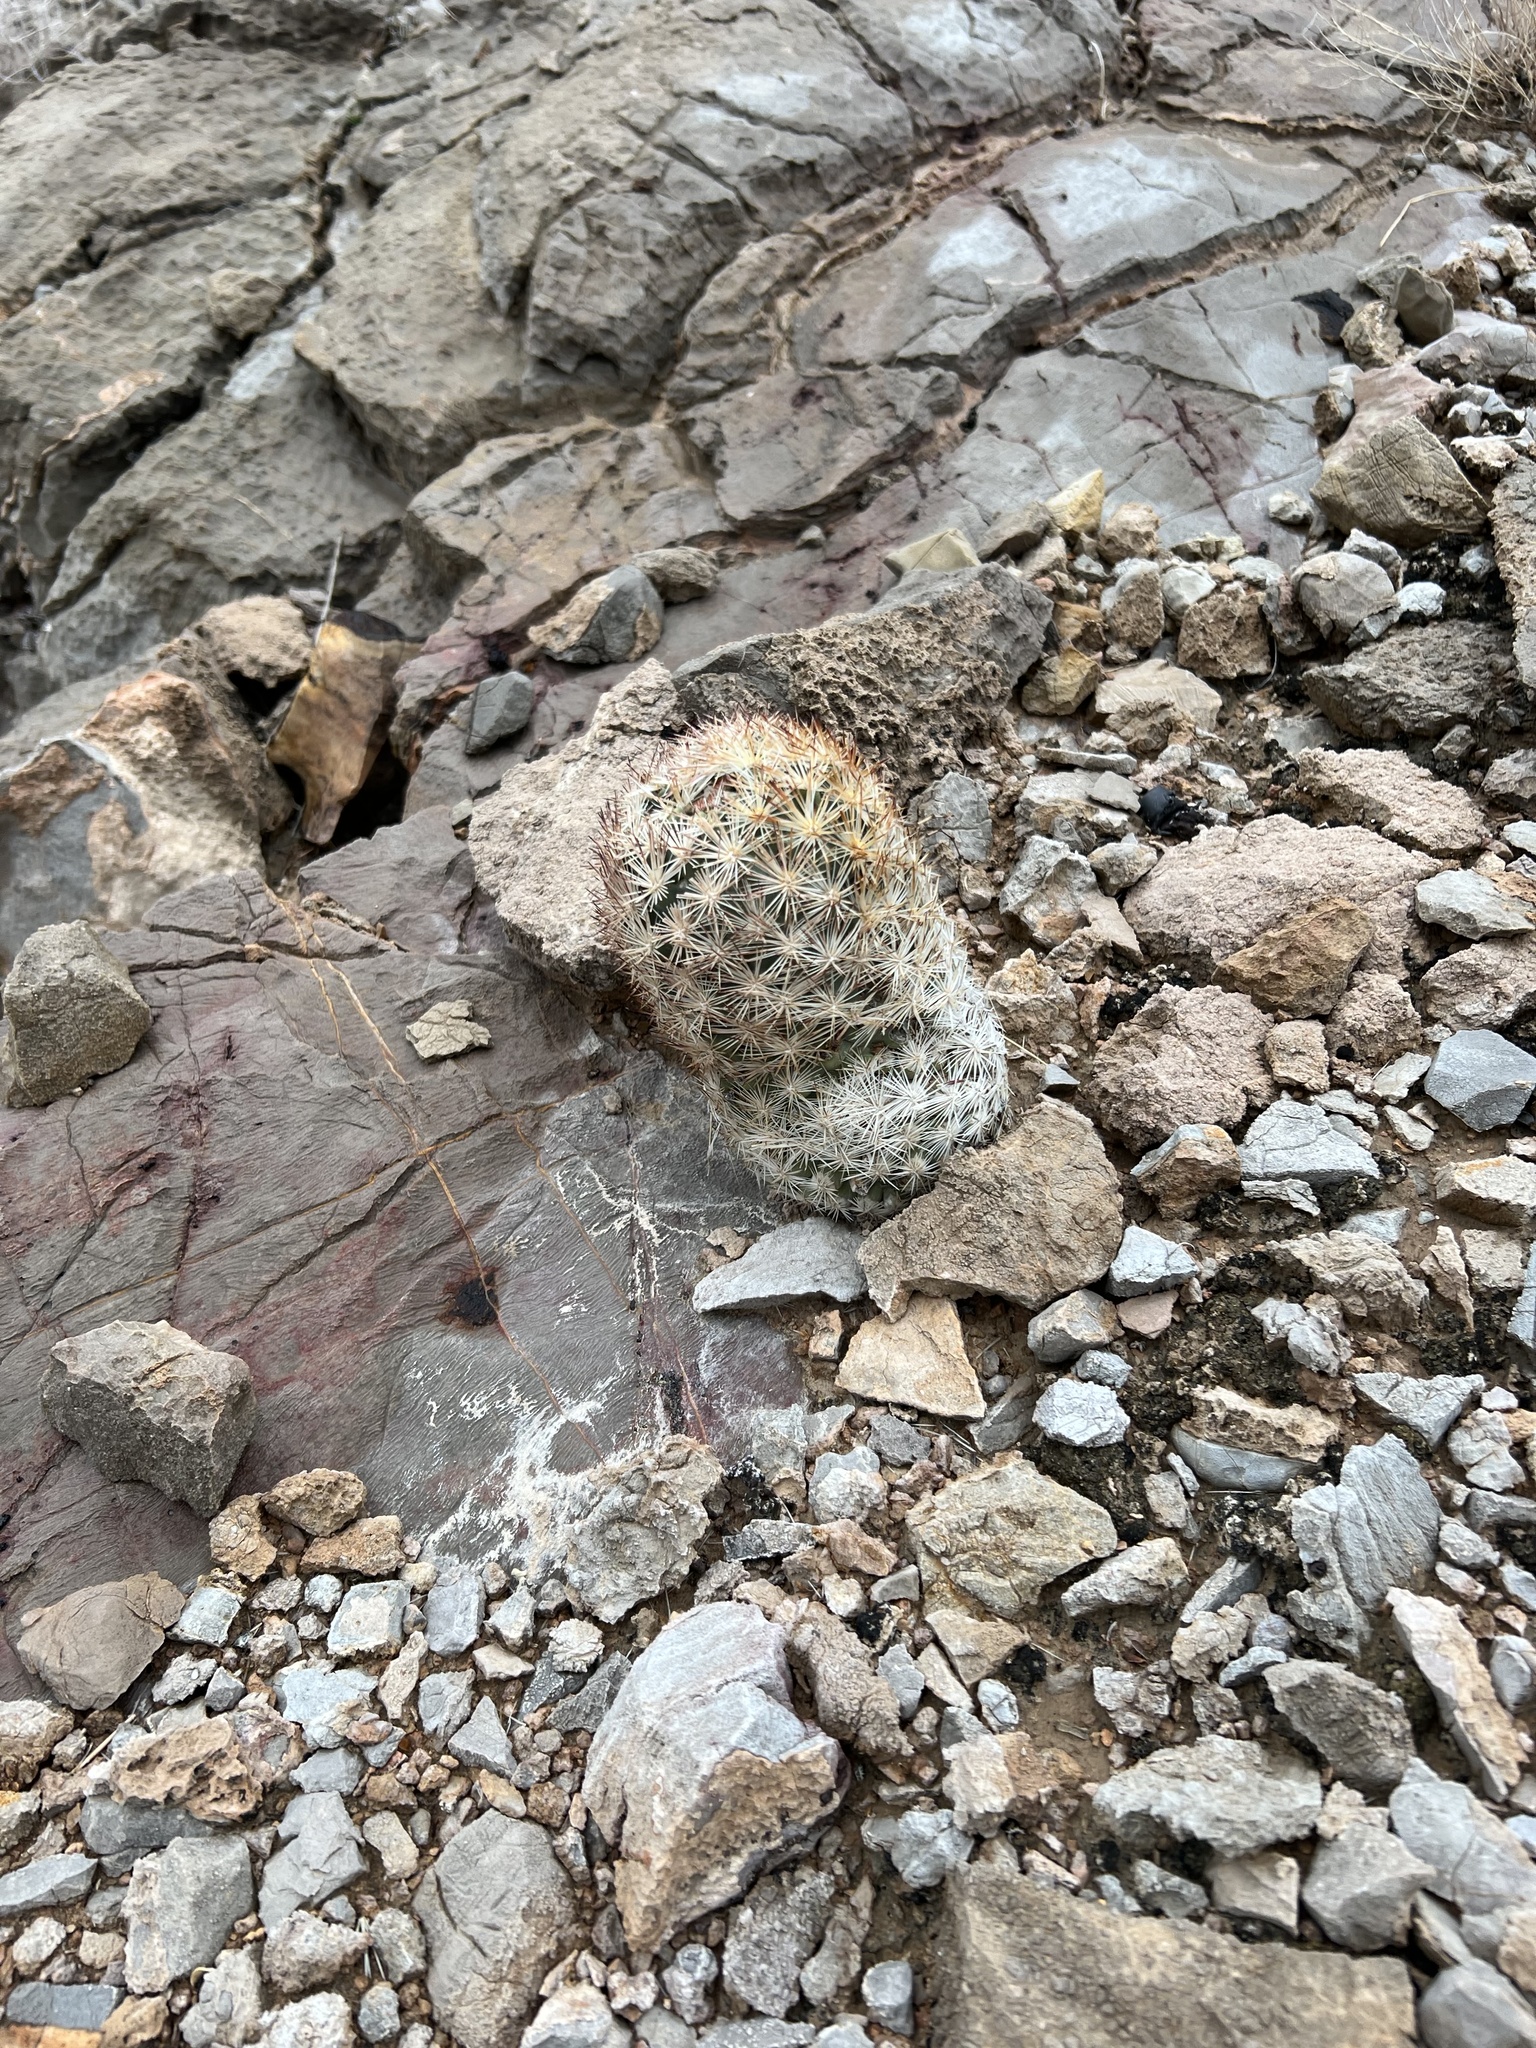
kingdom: Plantae
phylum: Tracheophyta
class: Magnoliopsida
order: Caryophyllales
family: Cactaceae
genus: Pelecyphora
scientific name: Pelecyphora dasyacantha
